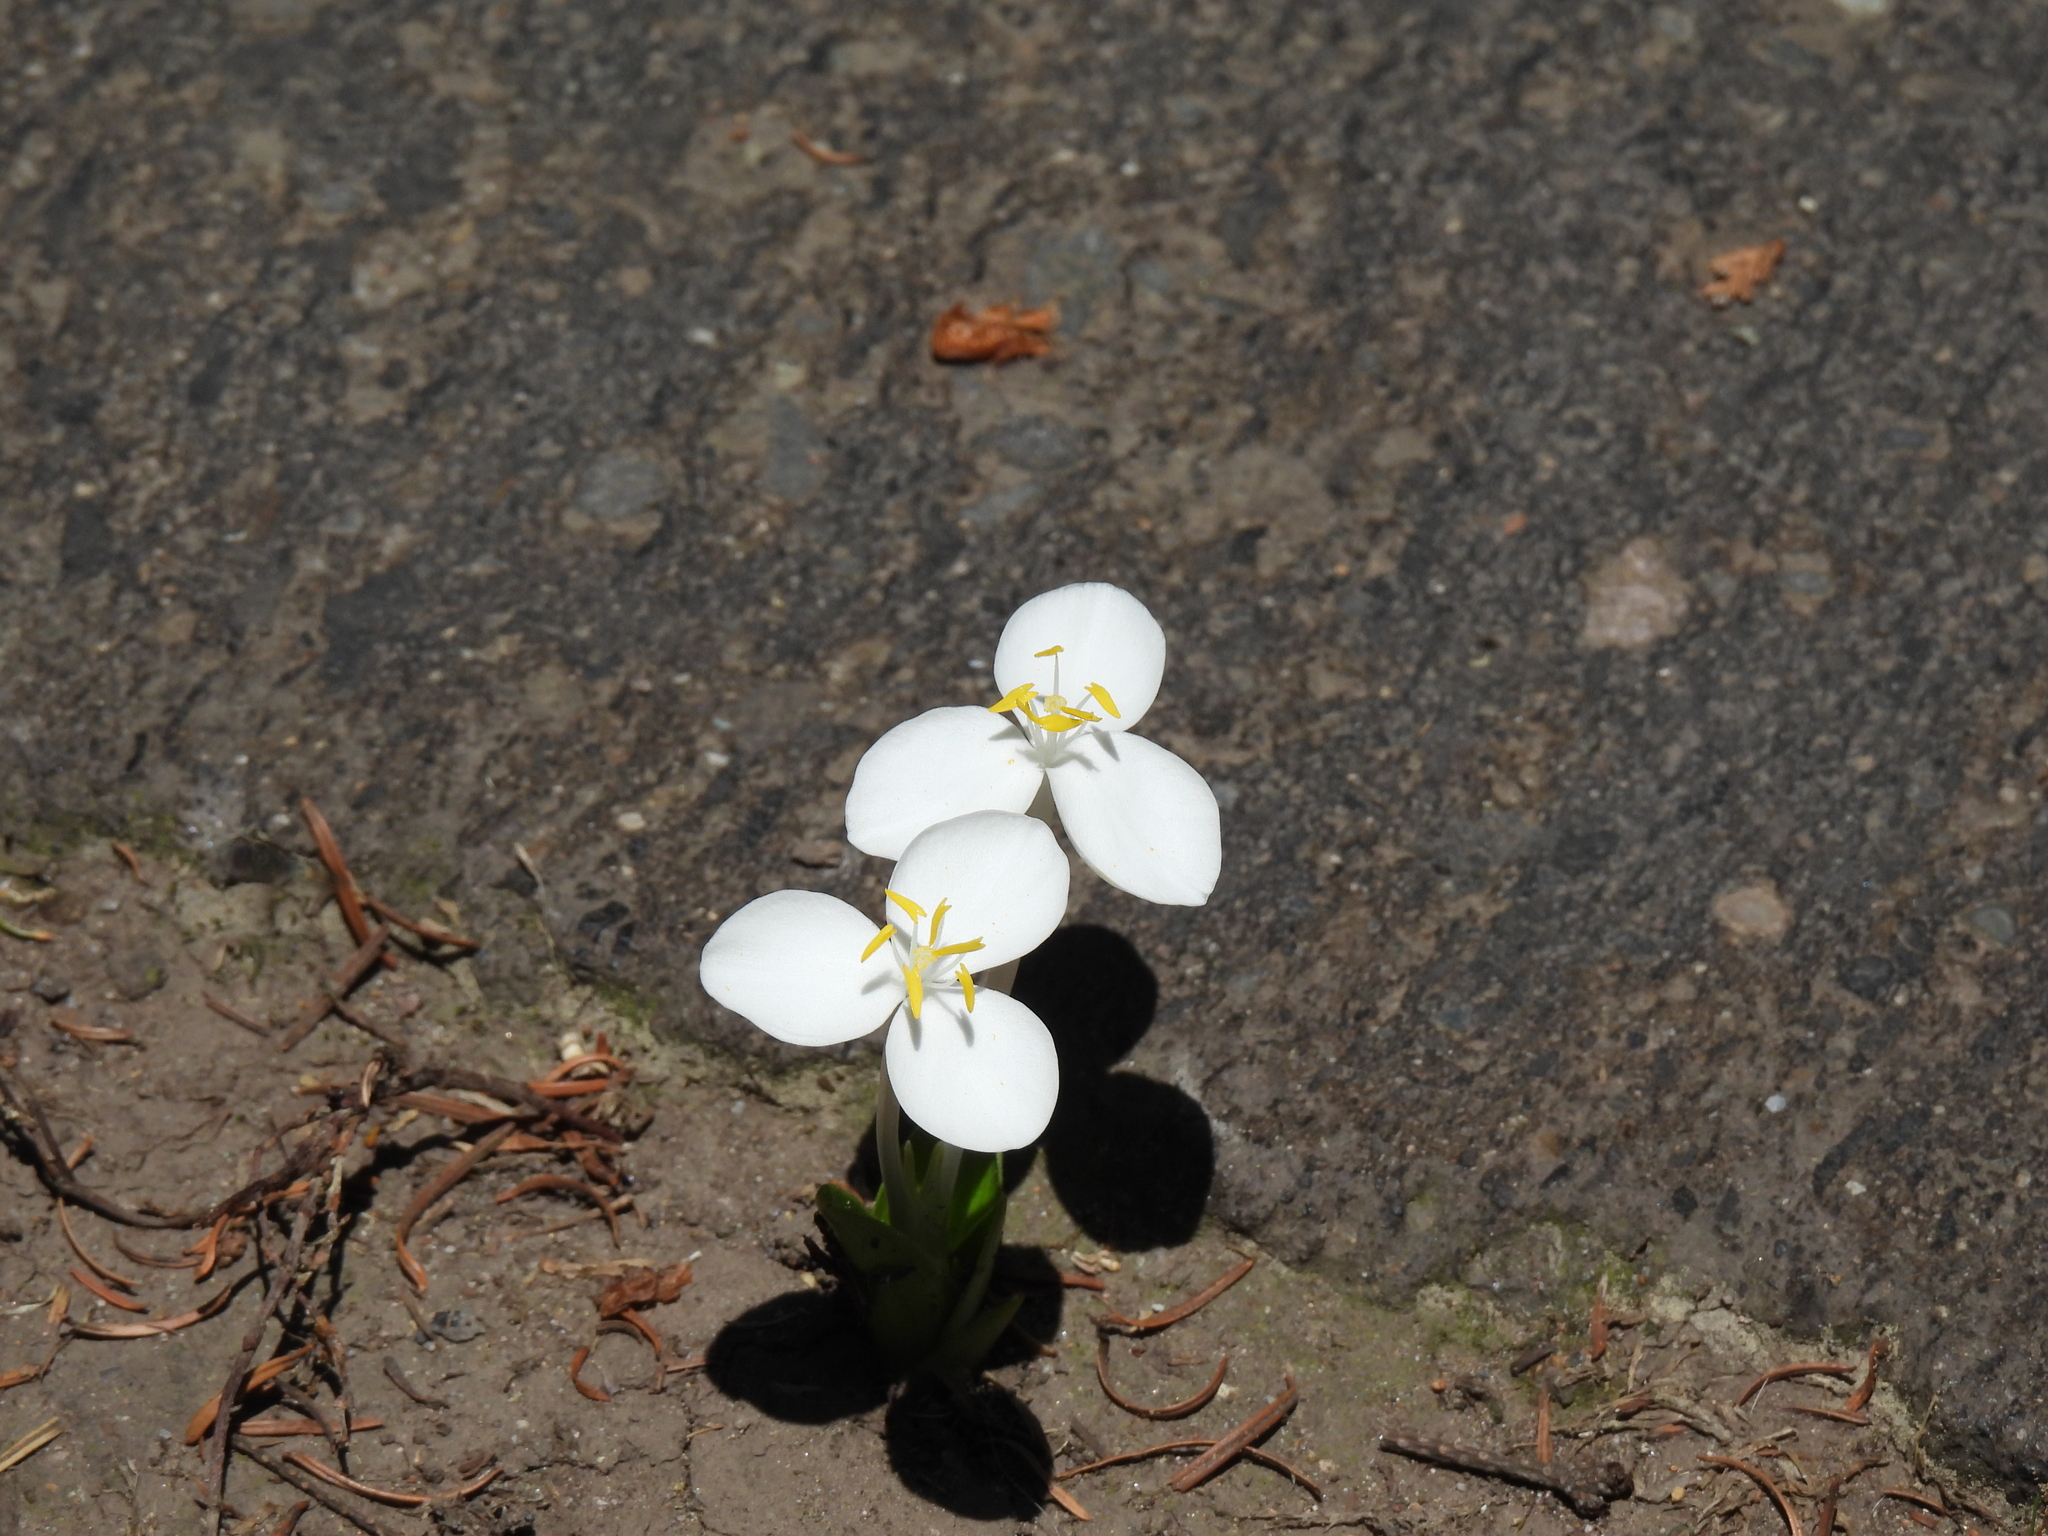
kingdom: Plantae
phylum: Tracheophyta
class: Liliopsida
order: Commelinales
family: Commelinaceae
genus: Weldenia
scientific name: Weldenia candida
